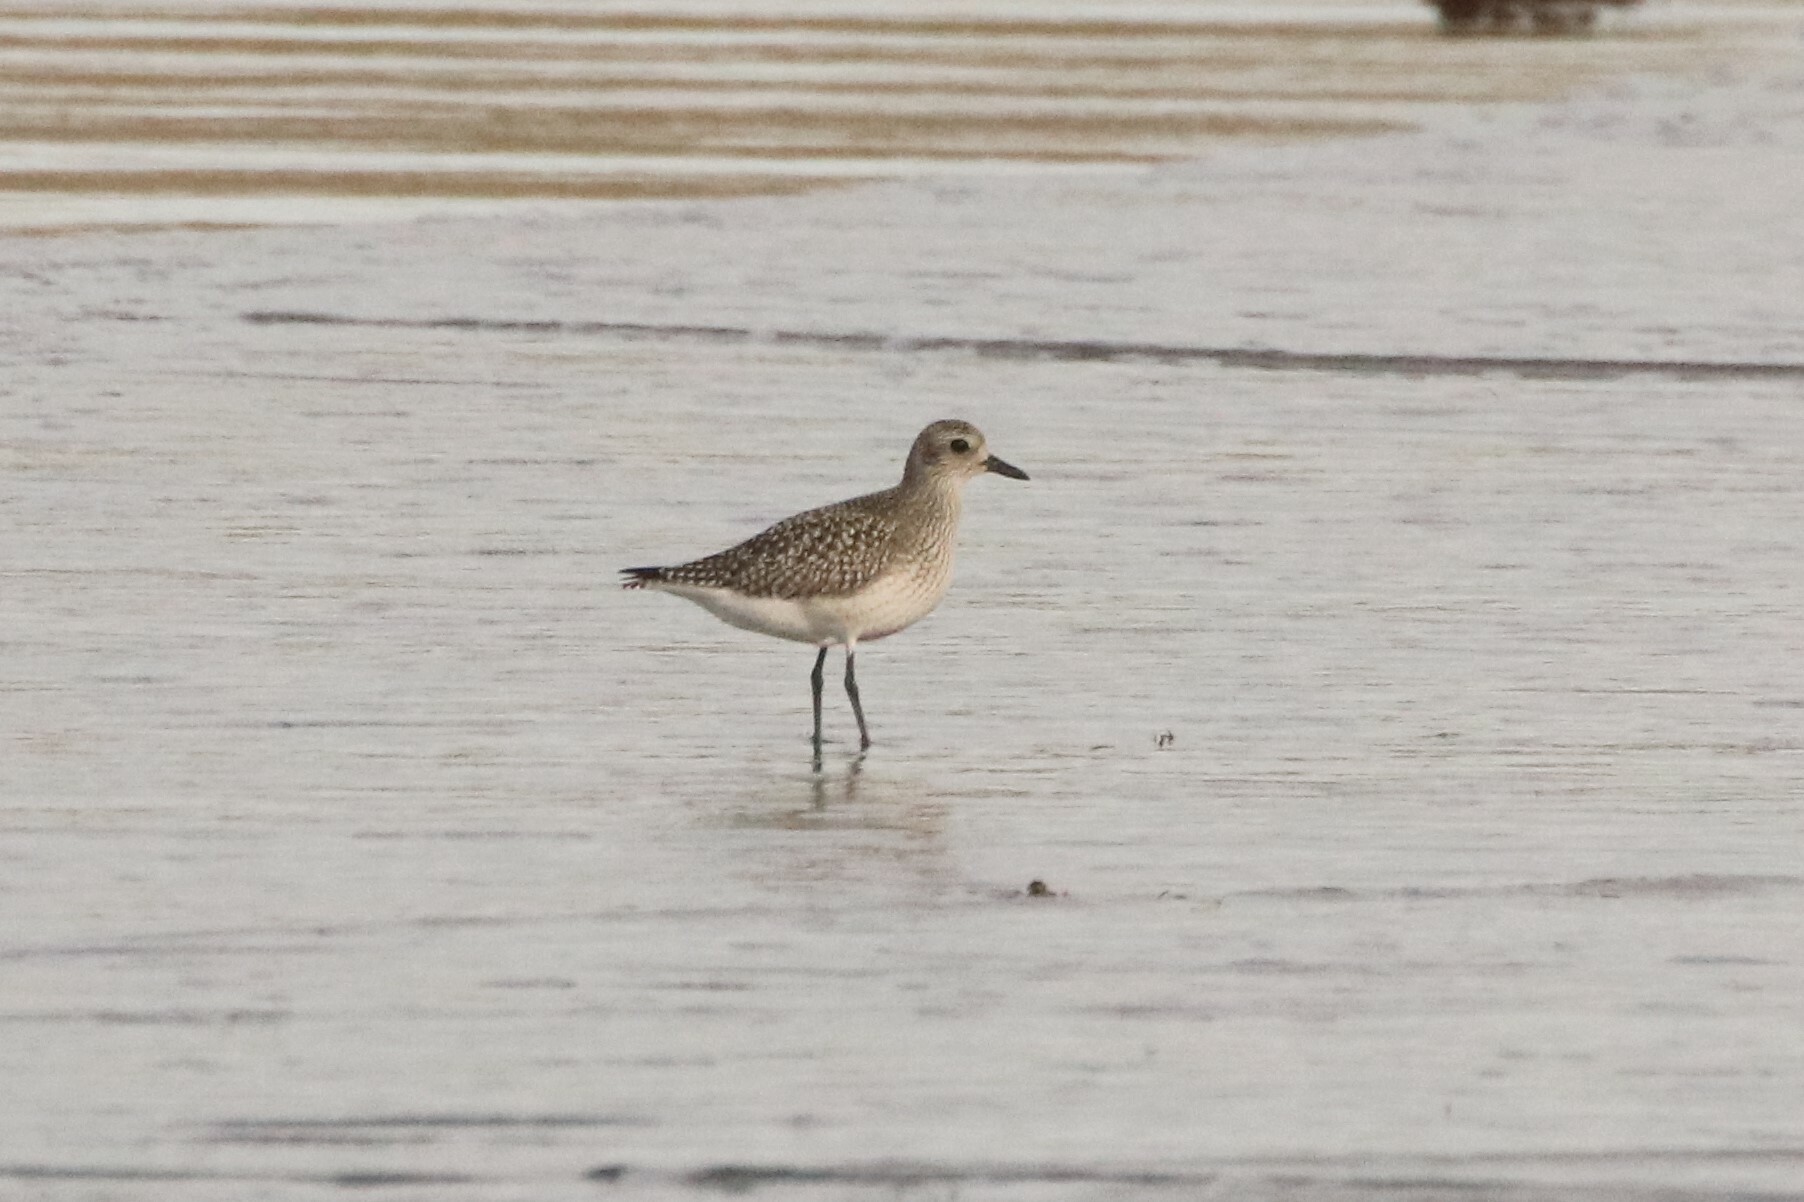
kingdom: Animalia
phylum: Chordata
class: Aves
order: Charadriiformes
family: Charadriidae
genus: Pluvialis
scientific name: Pluvialis squatarola
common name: Grey plover
